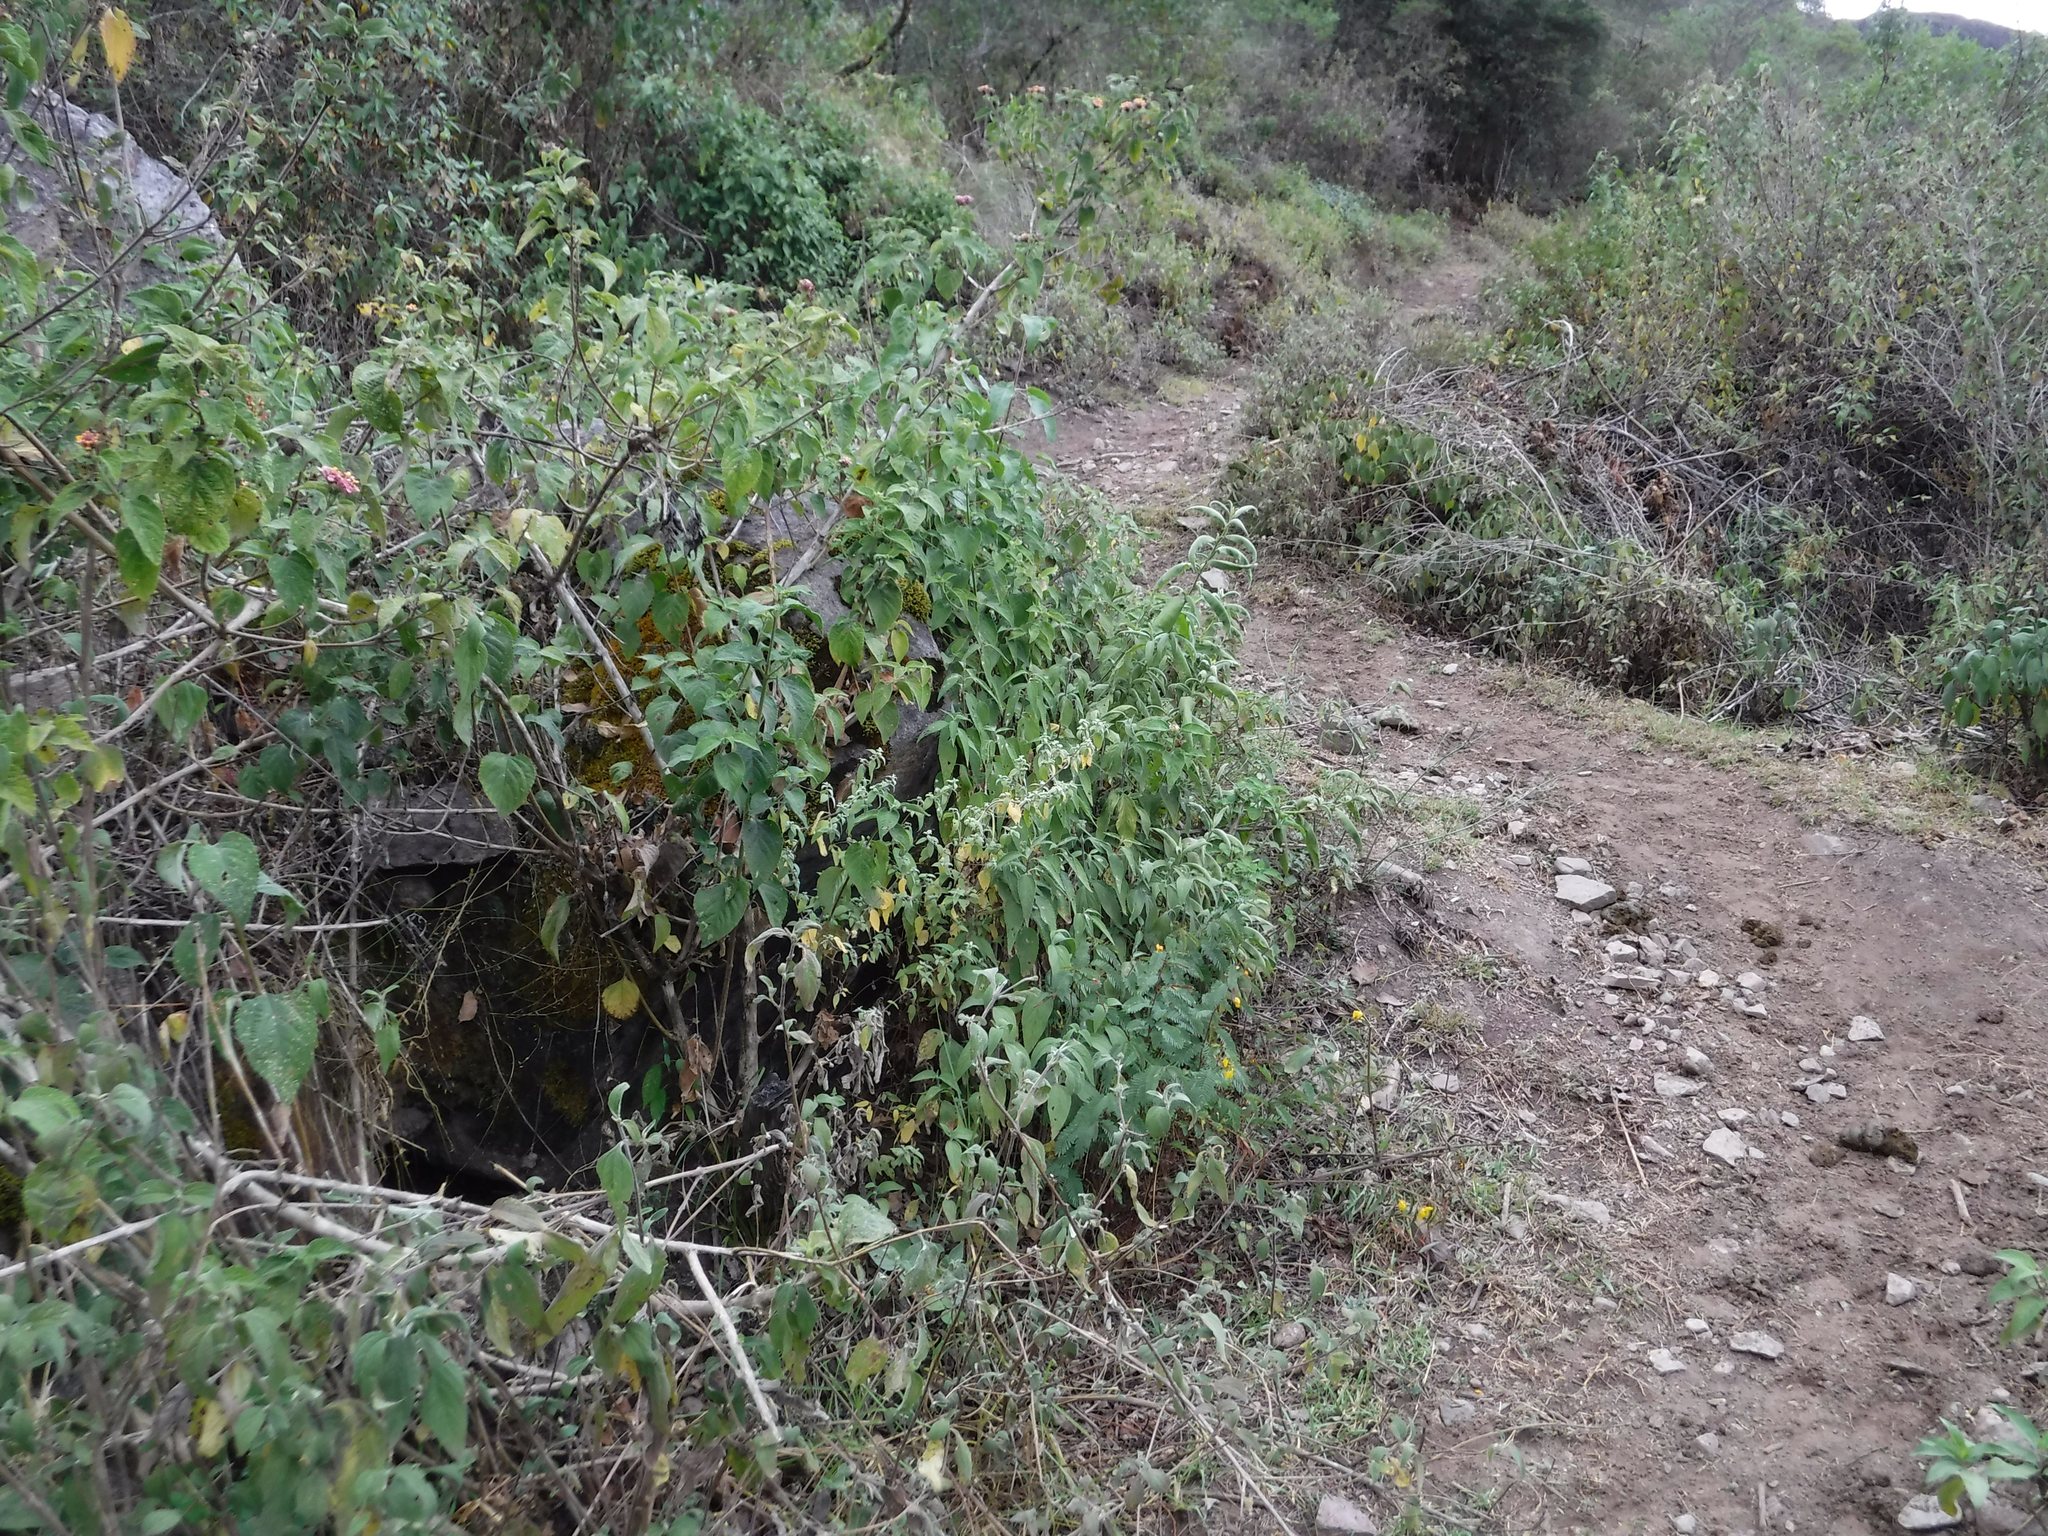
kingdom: Animalia
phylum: Arthropoda
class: Insecta
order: Hymenoptera
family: Apidae
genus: Apis
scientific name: Apis mellifera
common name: Honey bee
